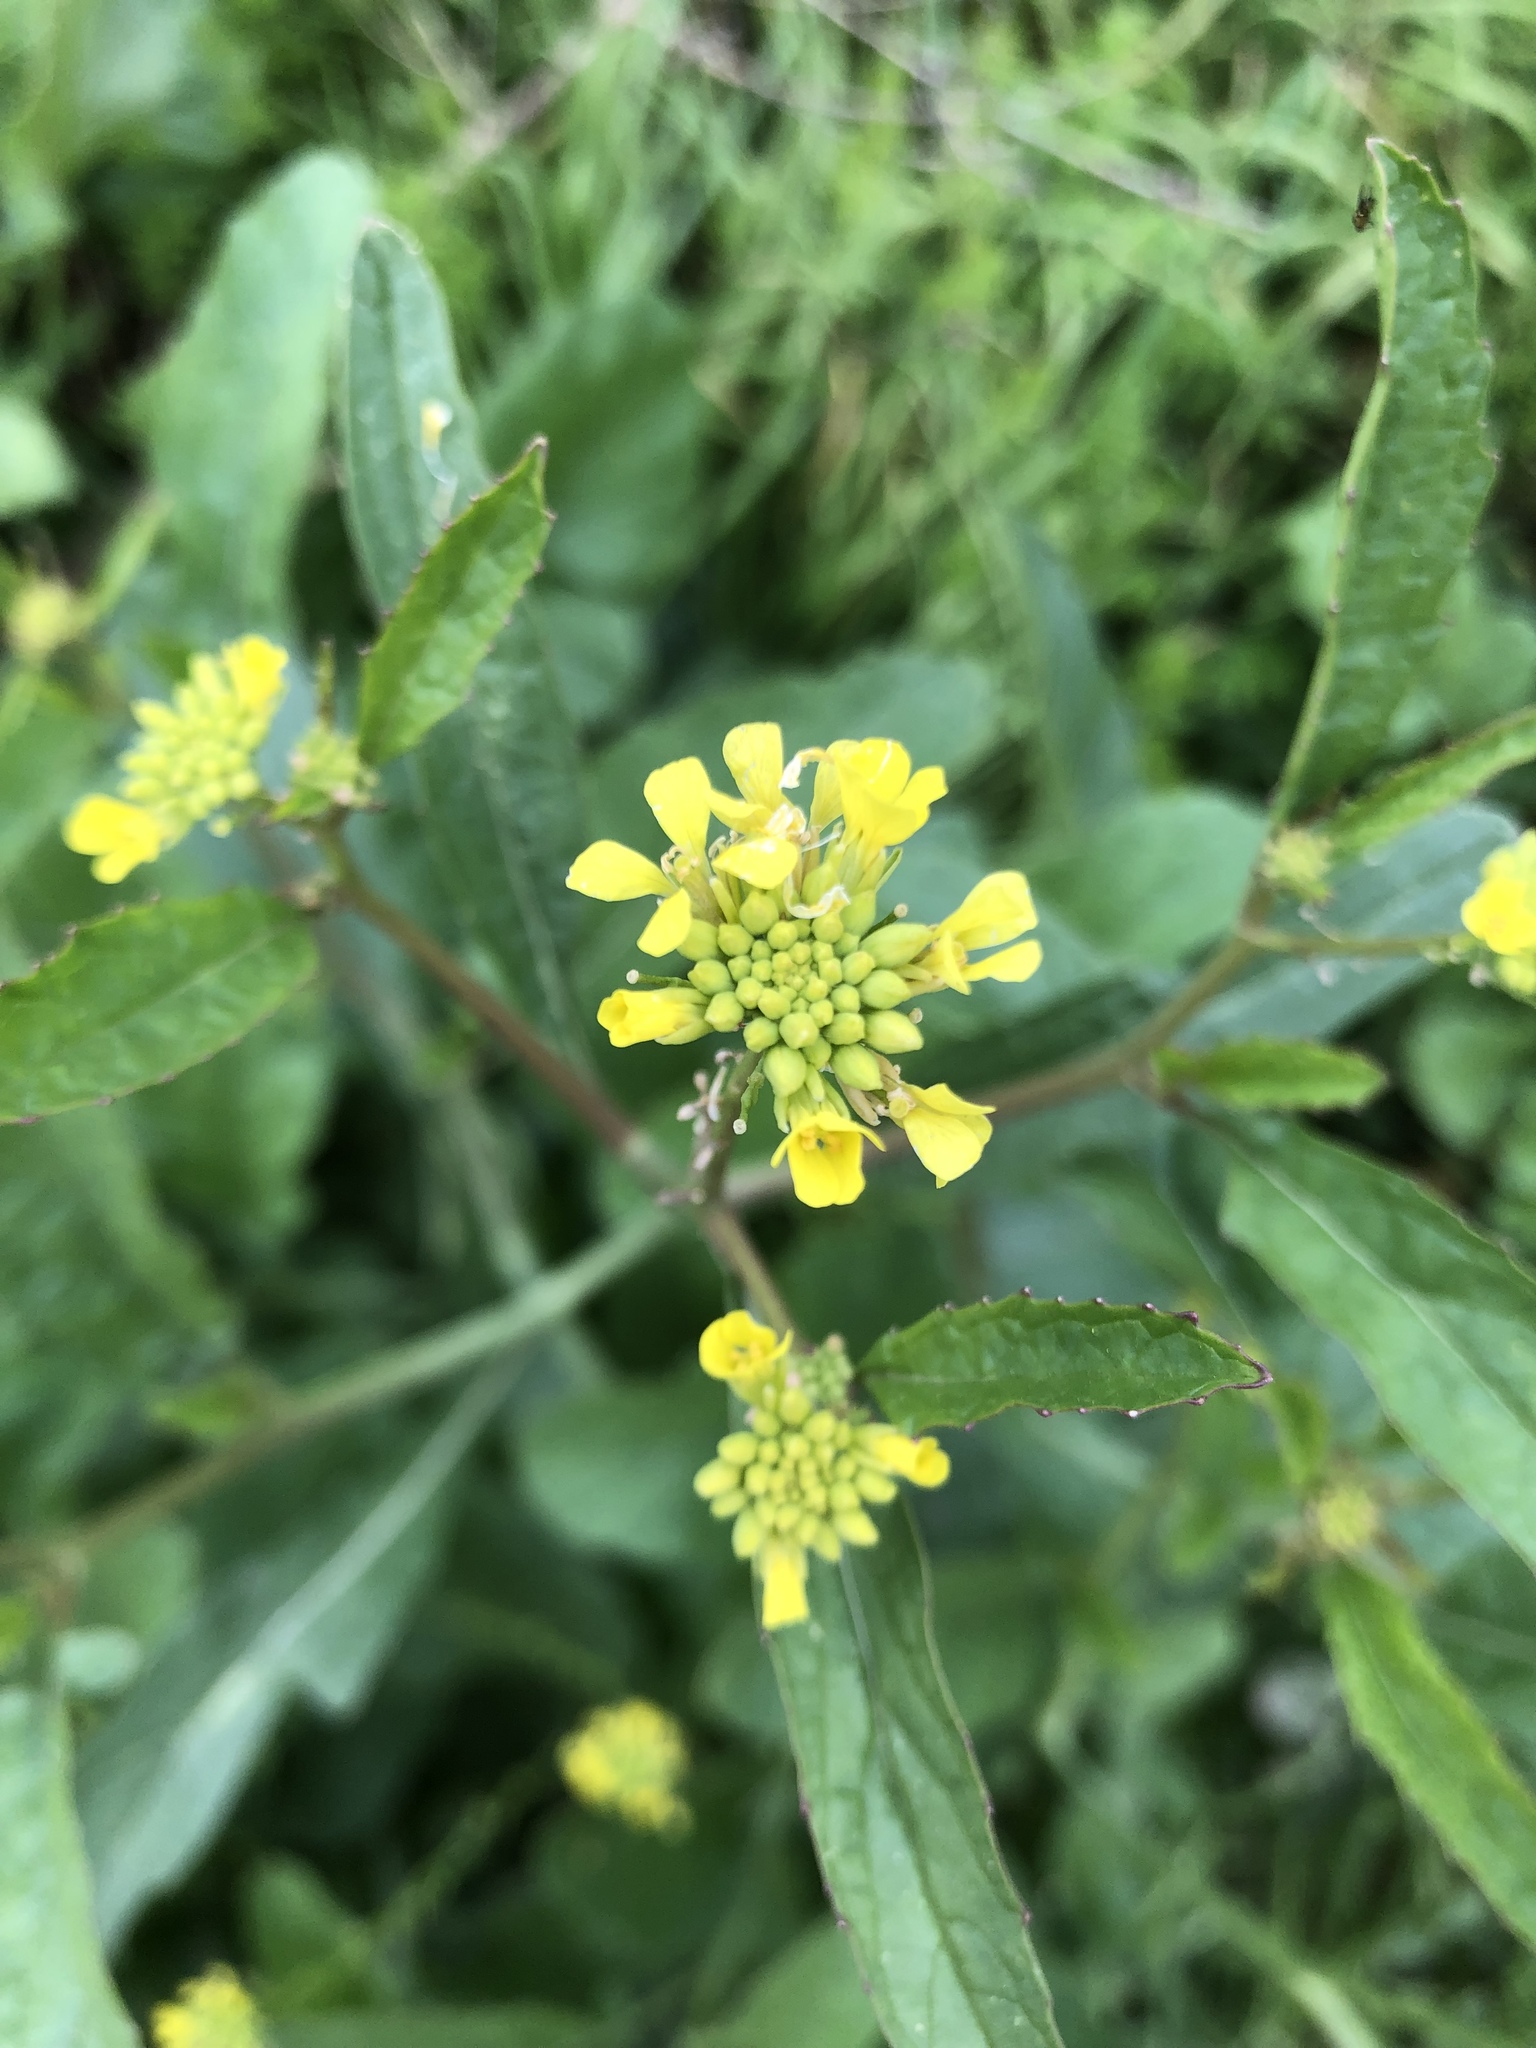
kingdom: Plantae
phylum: Tracheophyta
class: Magnoliopsida
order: Brassicales
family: Brassicaceae
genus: Rapistrum
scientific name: Rapistrum rugosum
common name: Annual bastardcabbage
